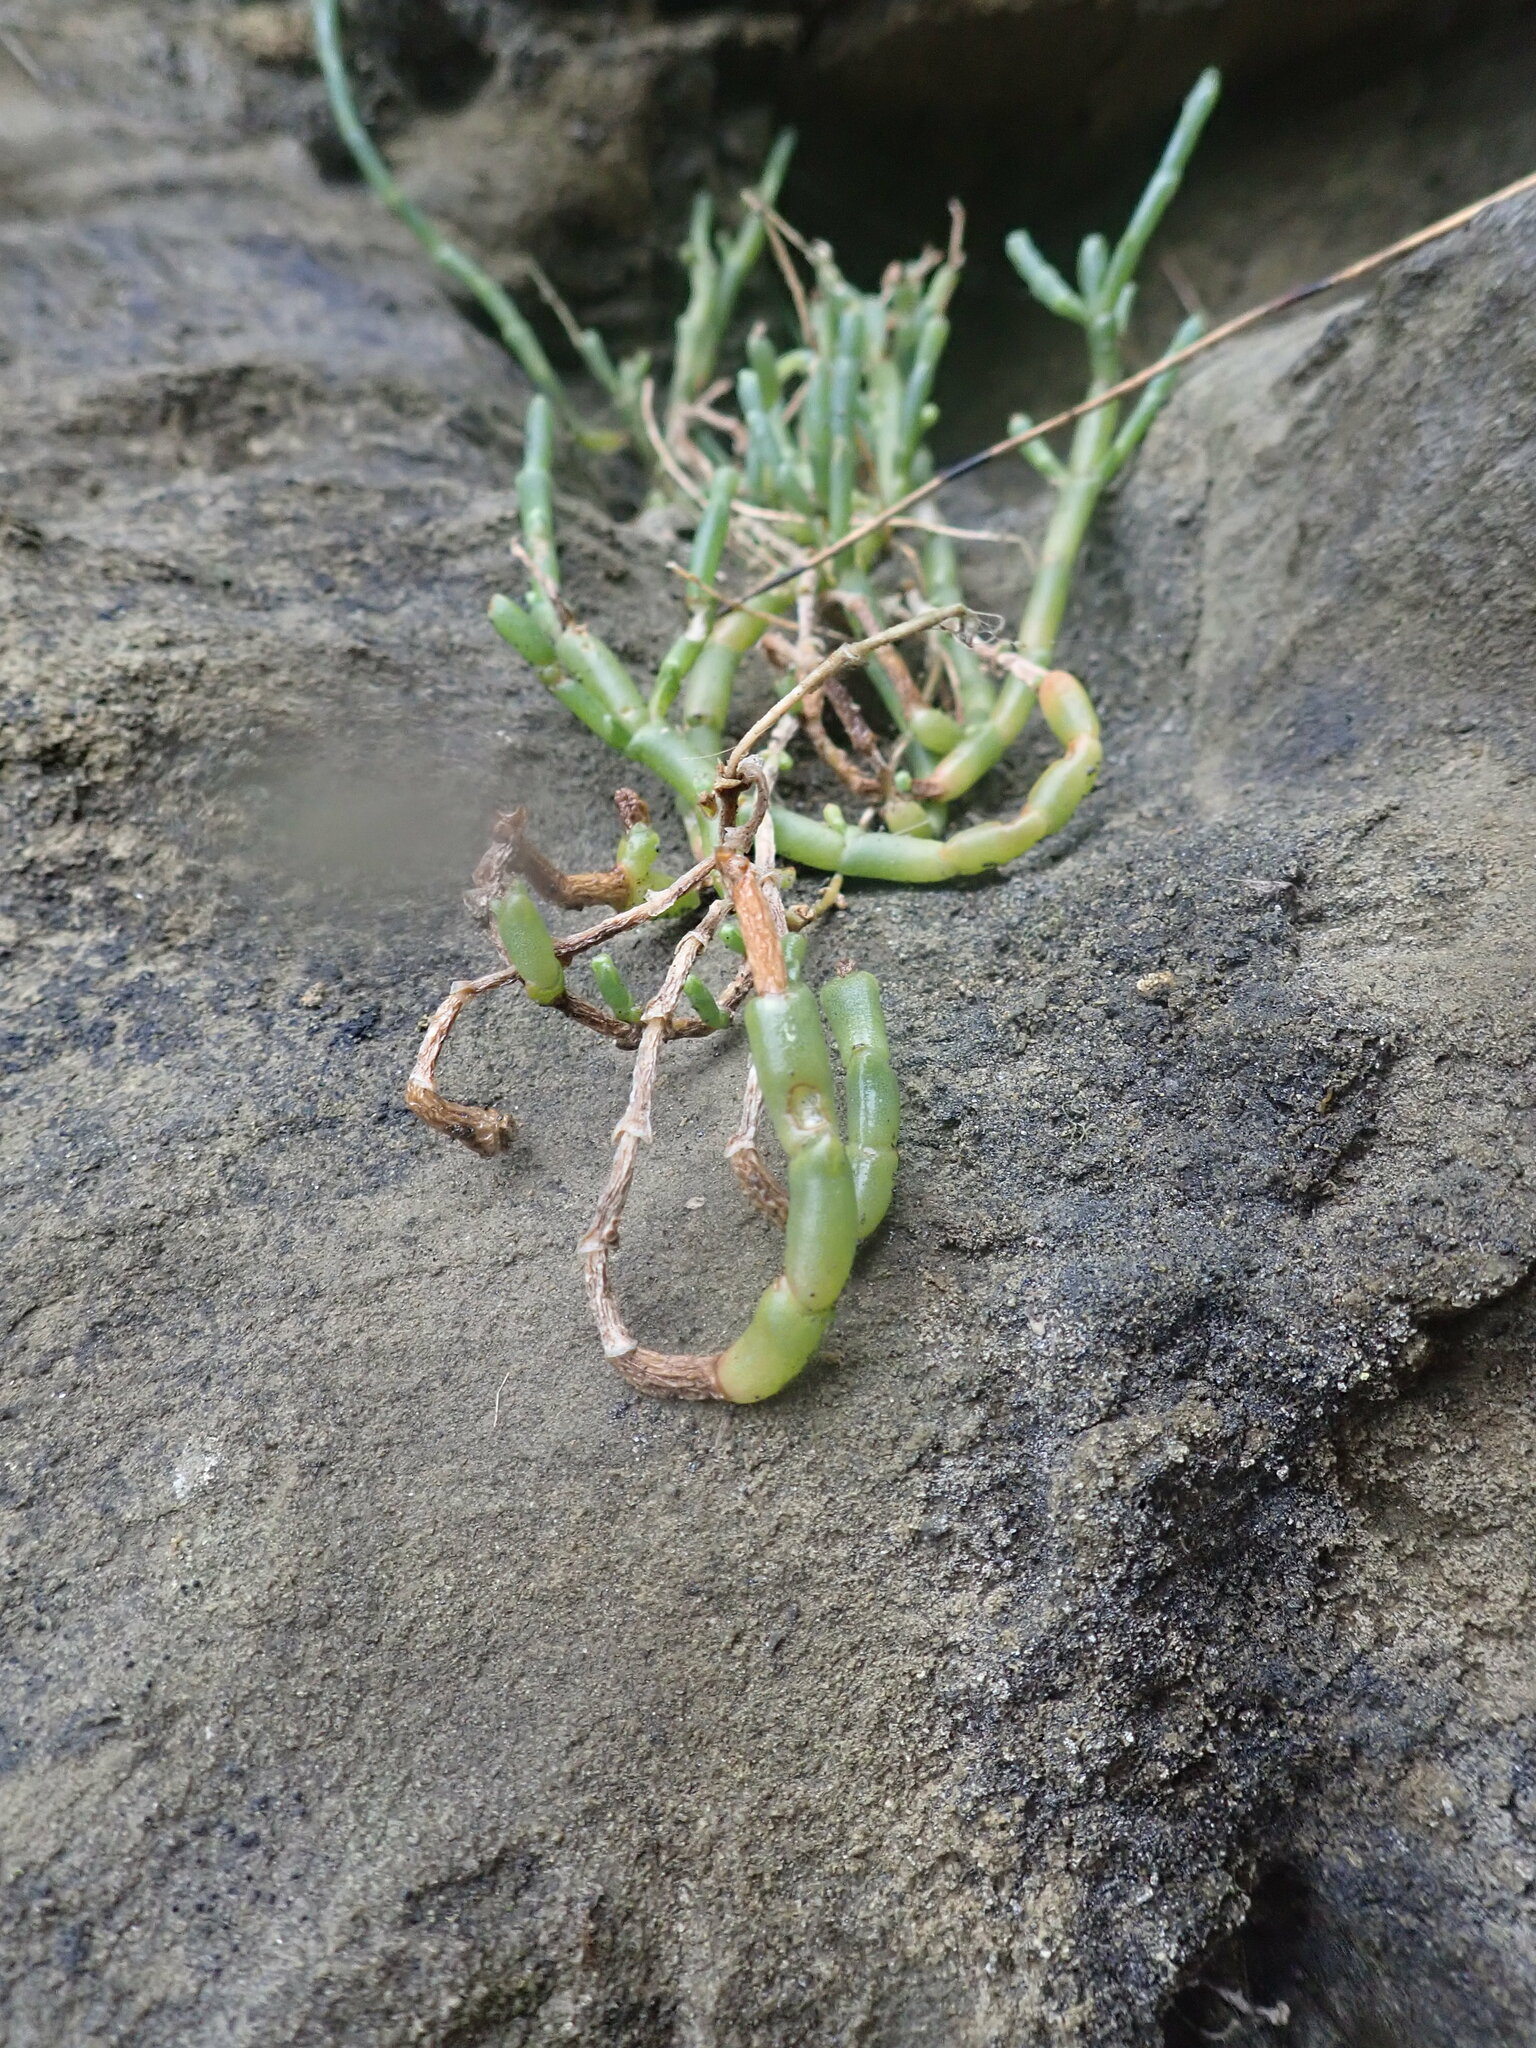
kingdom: Plantae
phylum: Tracheophyta
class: Magnoliopsida
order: Caryophyllales
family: Amaranthaceae
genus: Salicornia
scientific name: Salicornia quinqueflora
